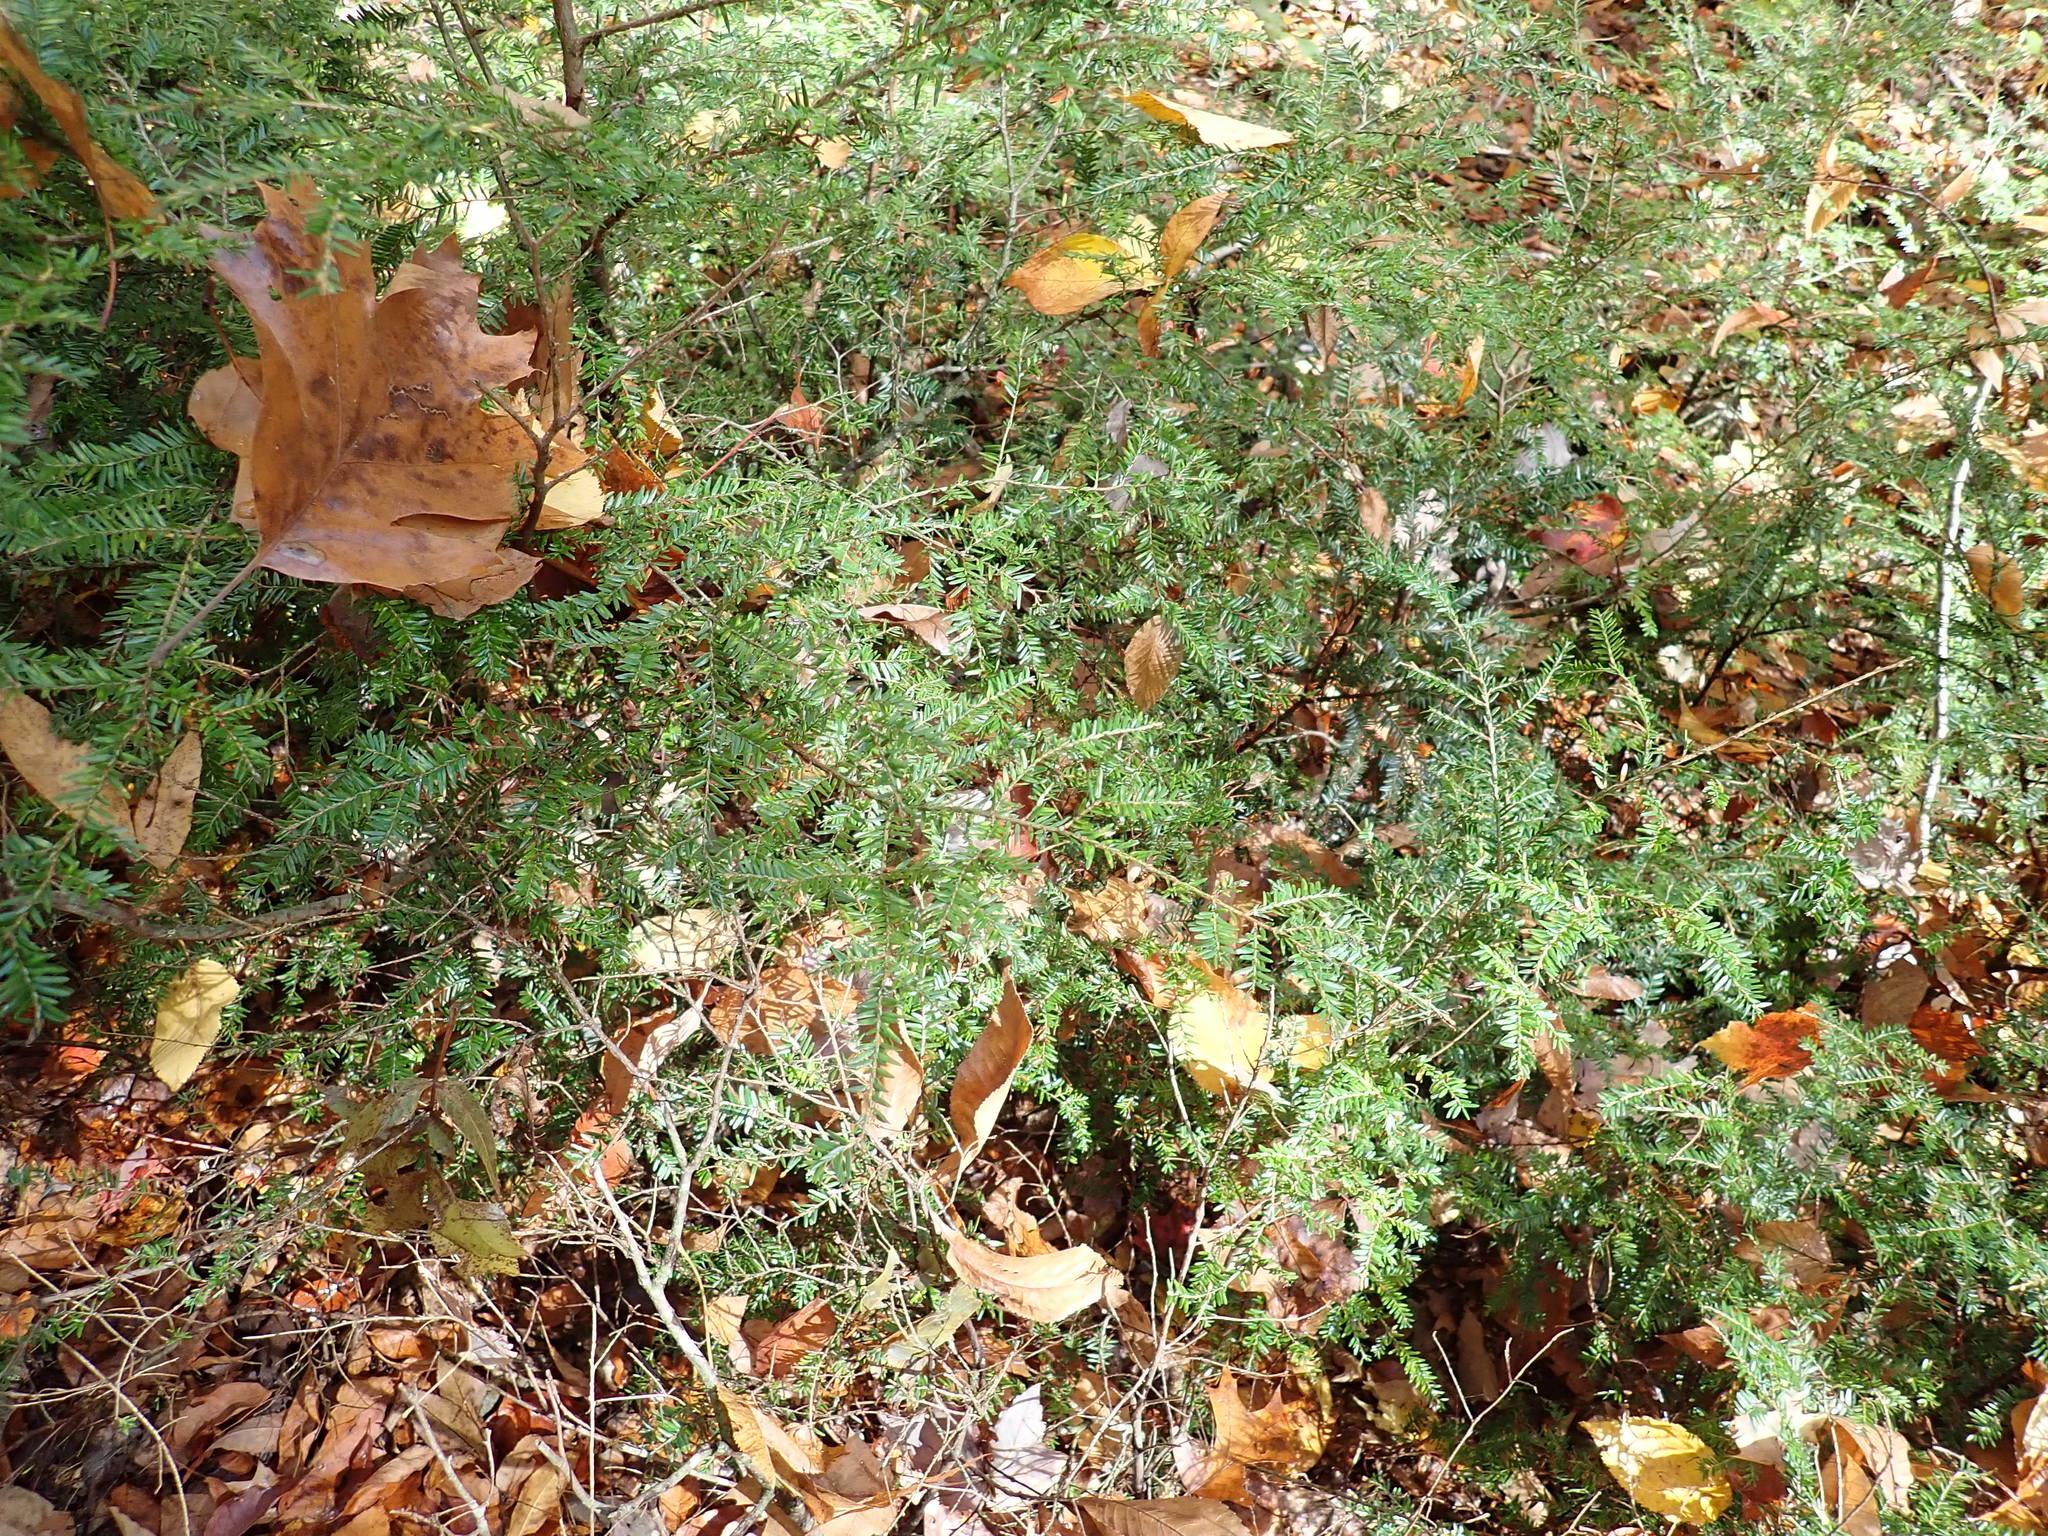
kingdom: Plantae
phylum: Tracheophyta
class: Pinopsida
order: Pinales
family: Pinaceae
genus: Tsuga
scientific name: Tsuga canadensis
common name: Eastern hemlock
